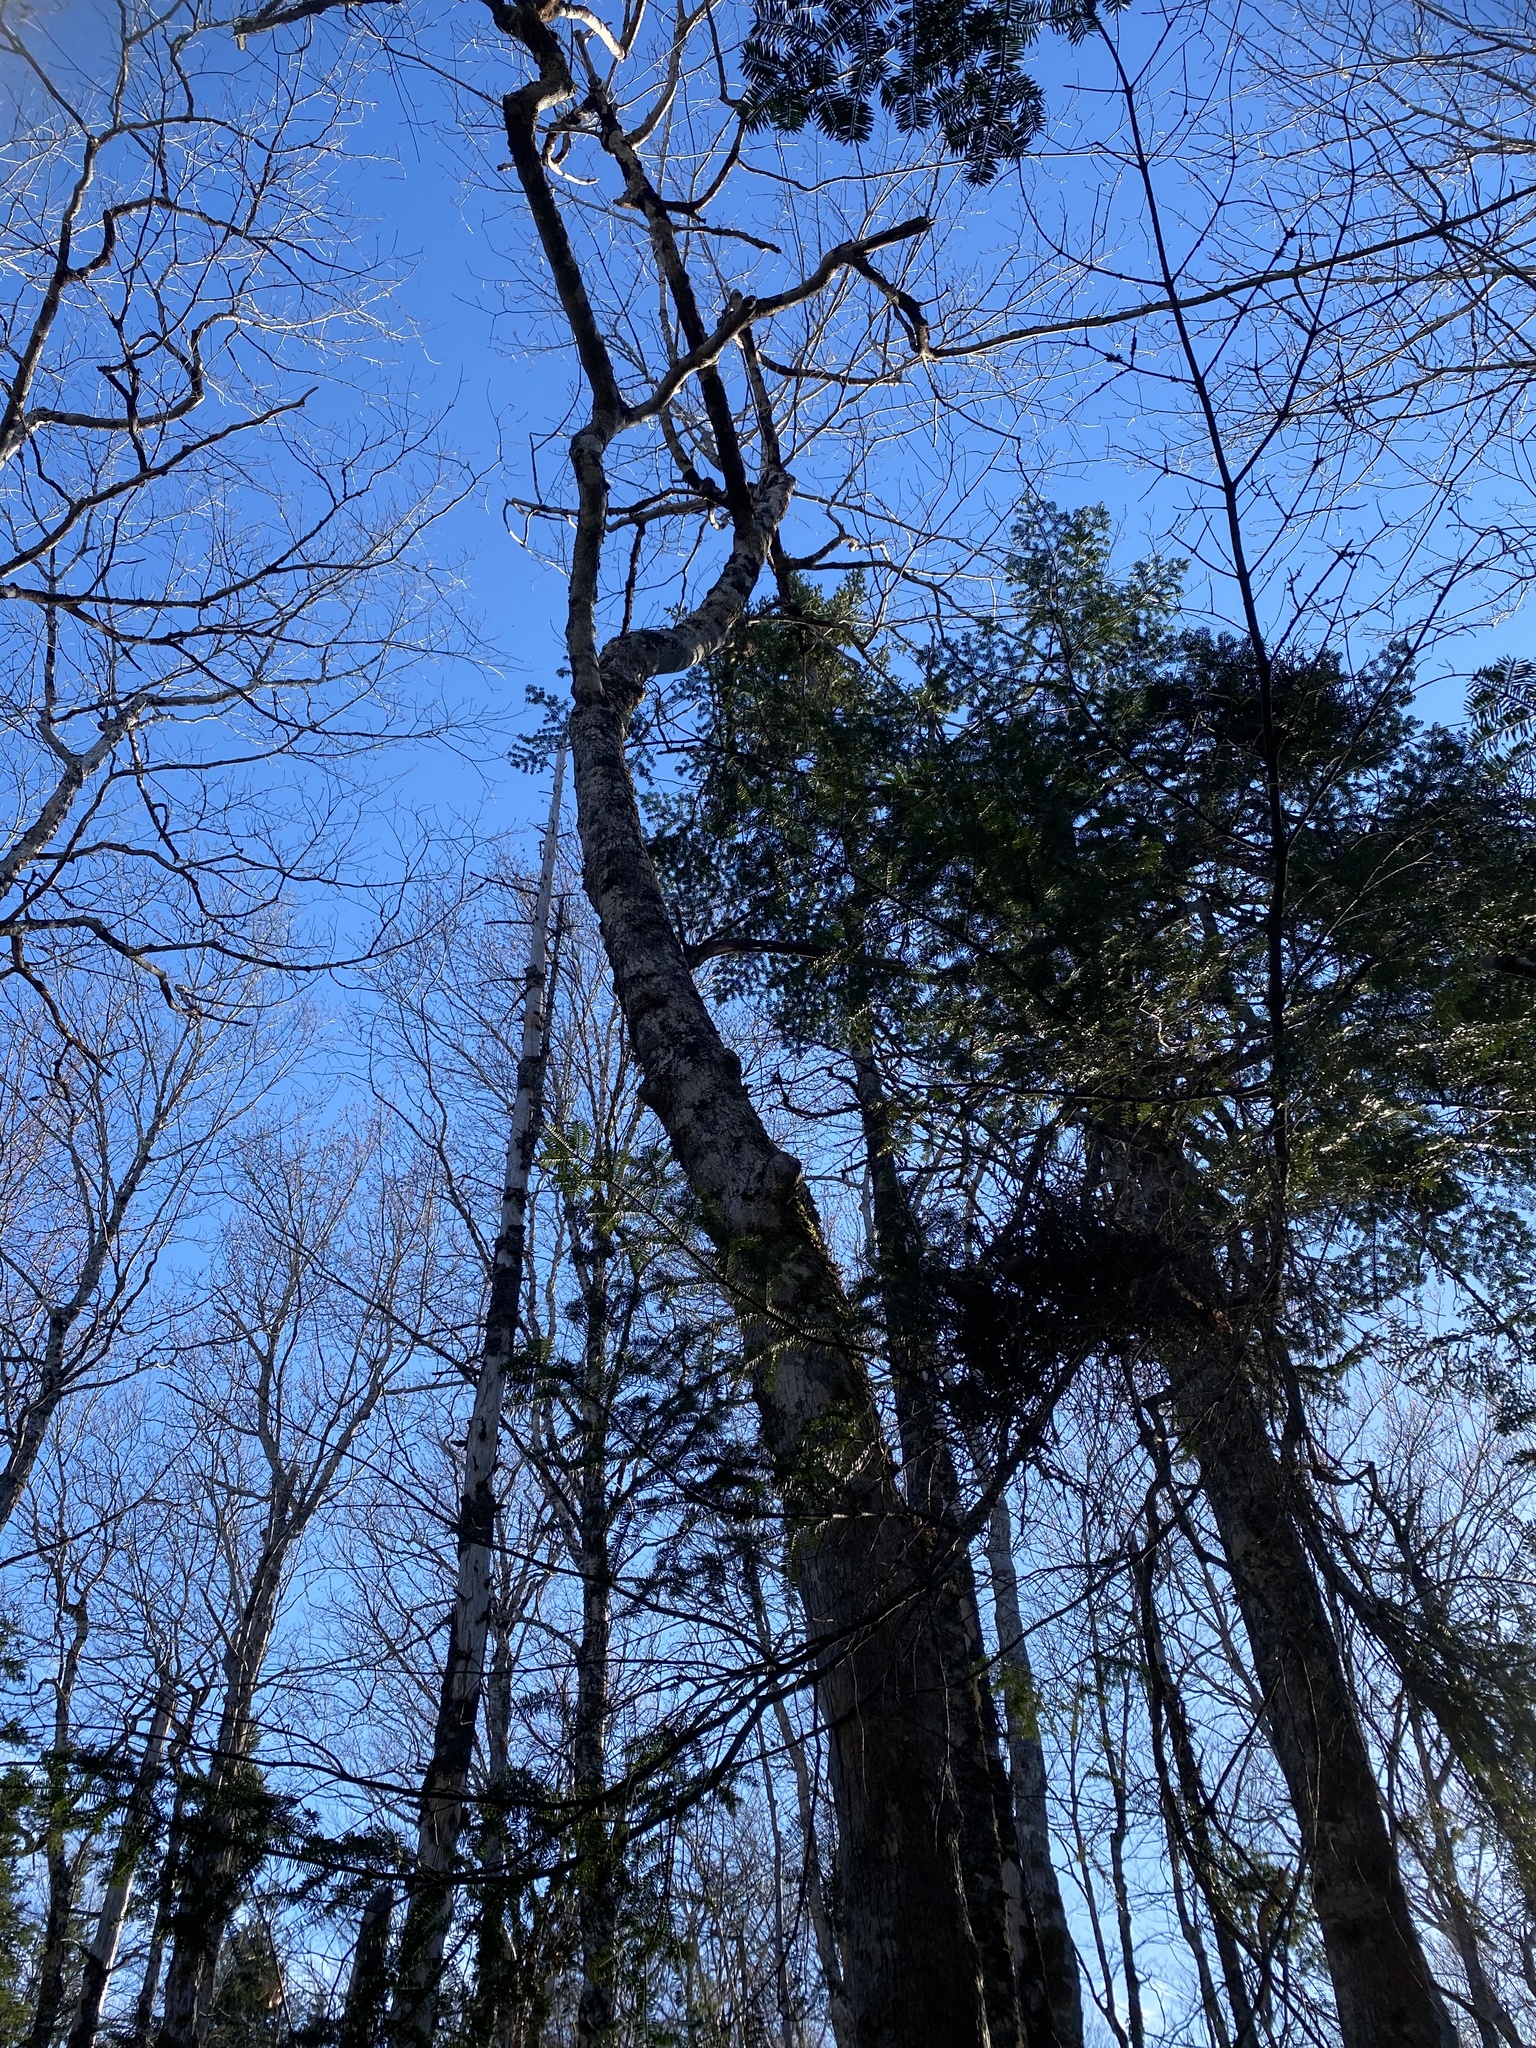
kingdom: Plantae
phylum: Tracheophyta
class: Magnoliopsida
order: Sapindales
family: Sapindaceae
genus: Acer
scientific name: Acer saccharum
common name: Sugar maple
